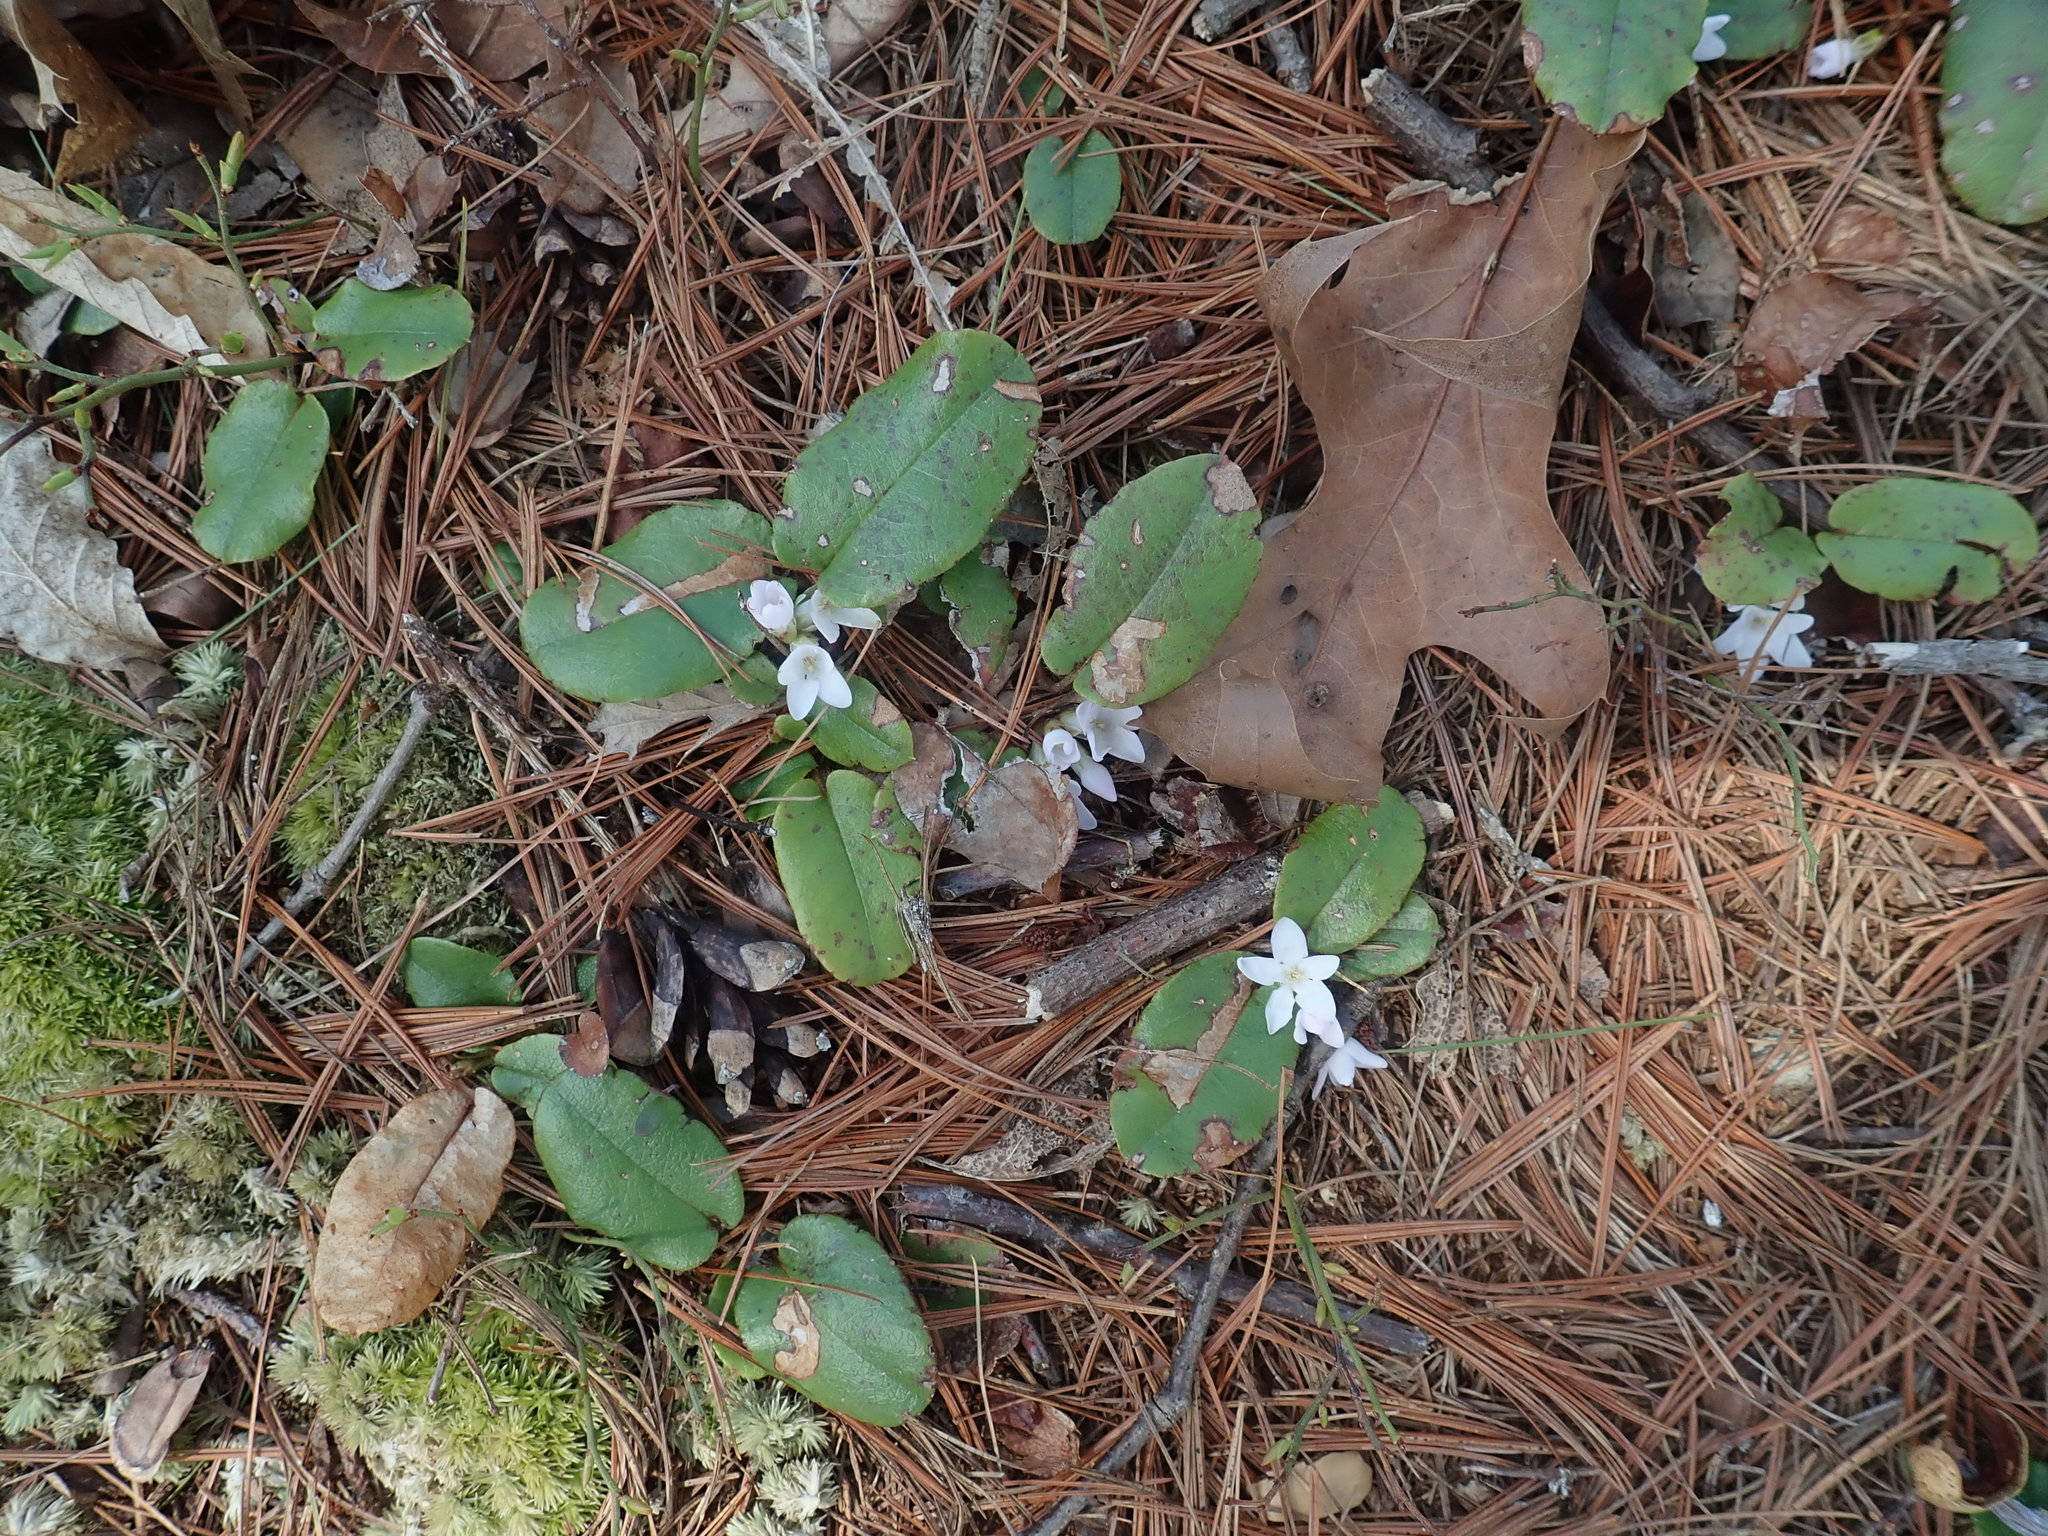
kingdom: Plantae
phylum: Tracheophyta
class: Magnoliopsida
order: Ericales
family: Ericaceae
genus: Epigaea
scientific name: Epigaea repens
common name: Gravelroot
